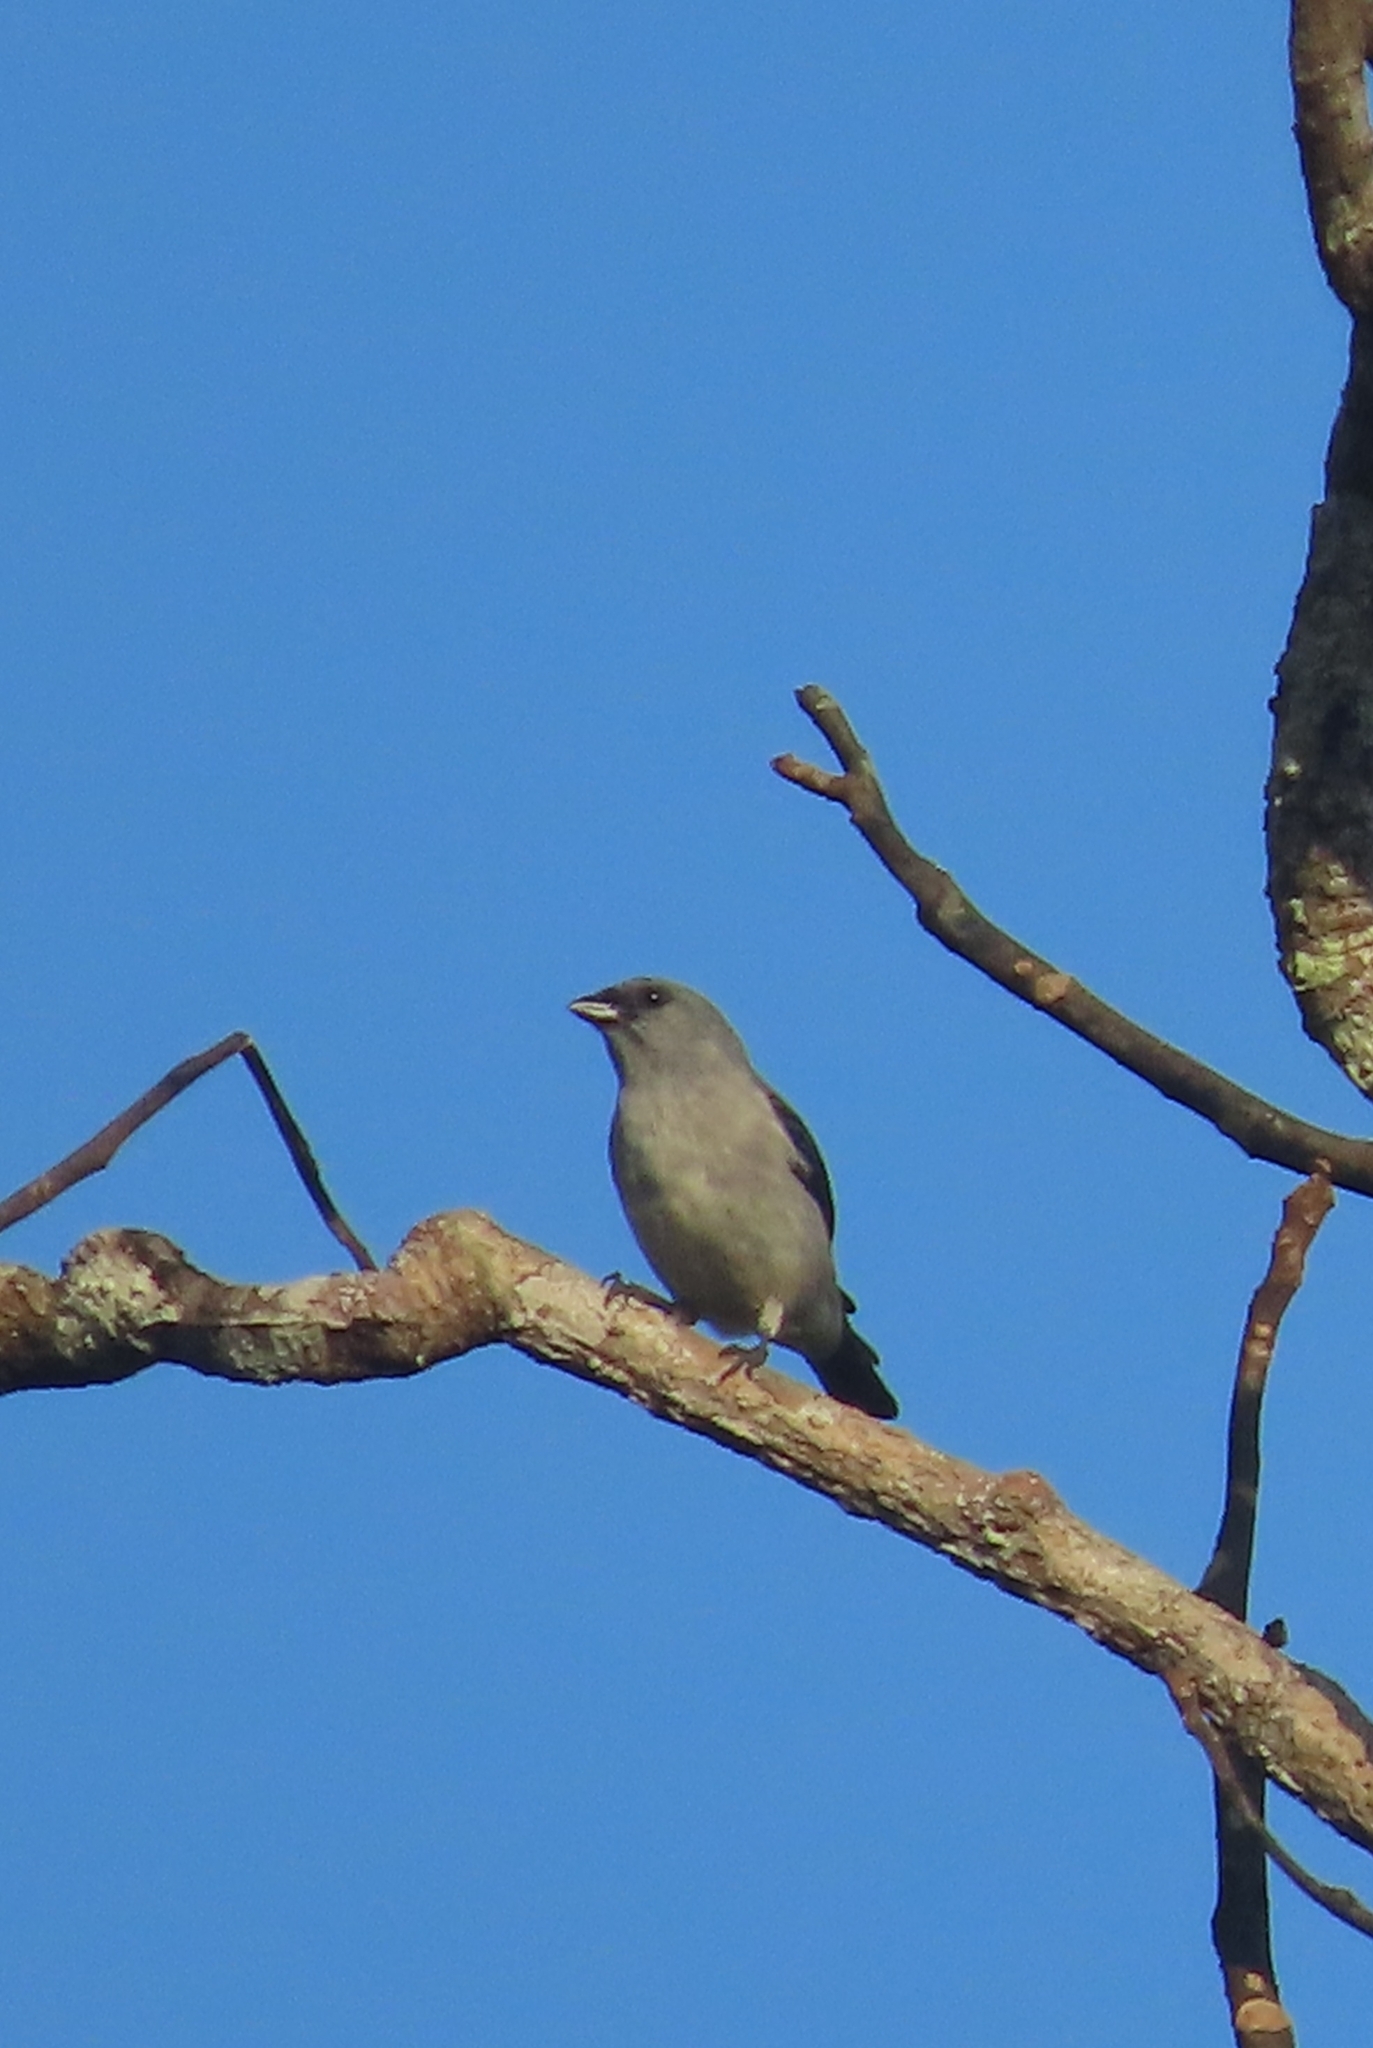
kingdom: Animalia
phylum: Chordata
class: Aves
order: Passeriformes
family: Thraupidae
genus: Tangara
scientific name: Tangara inornata
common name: Plain-colored tanager
